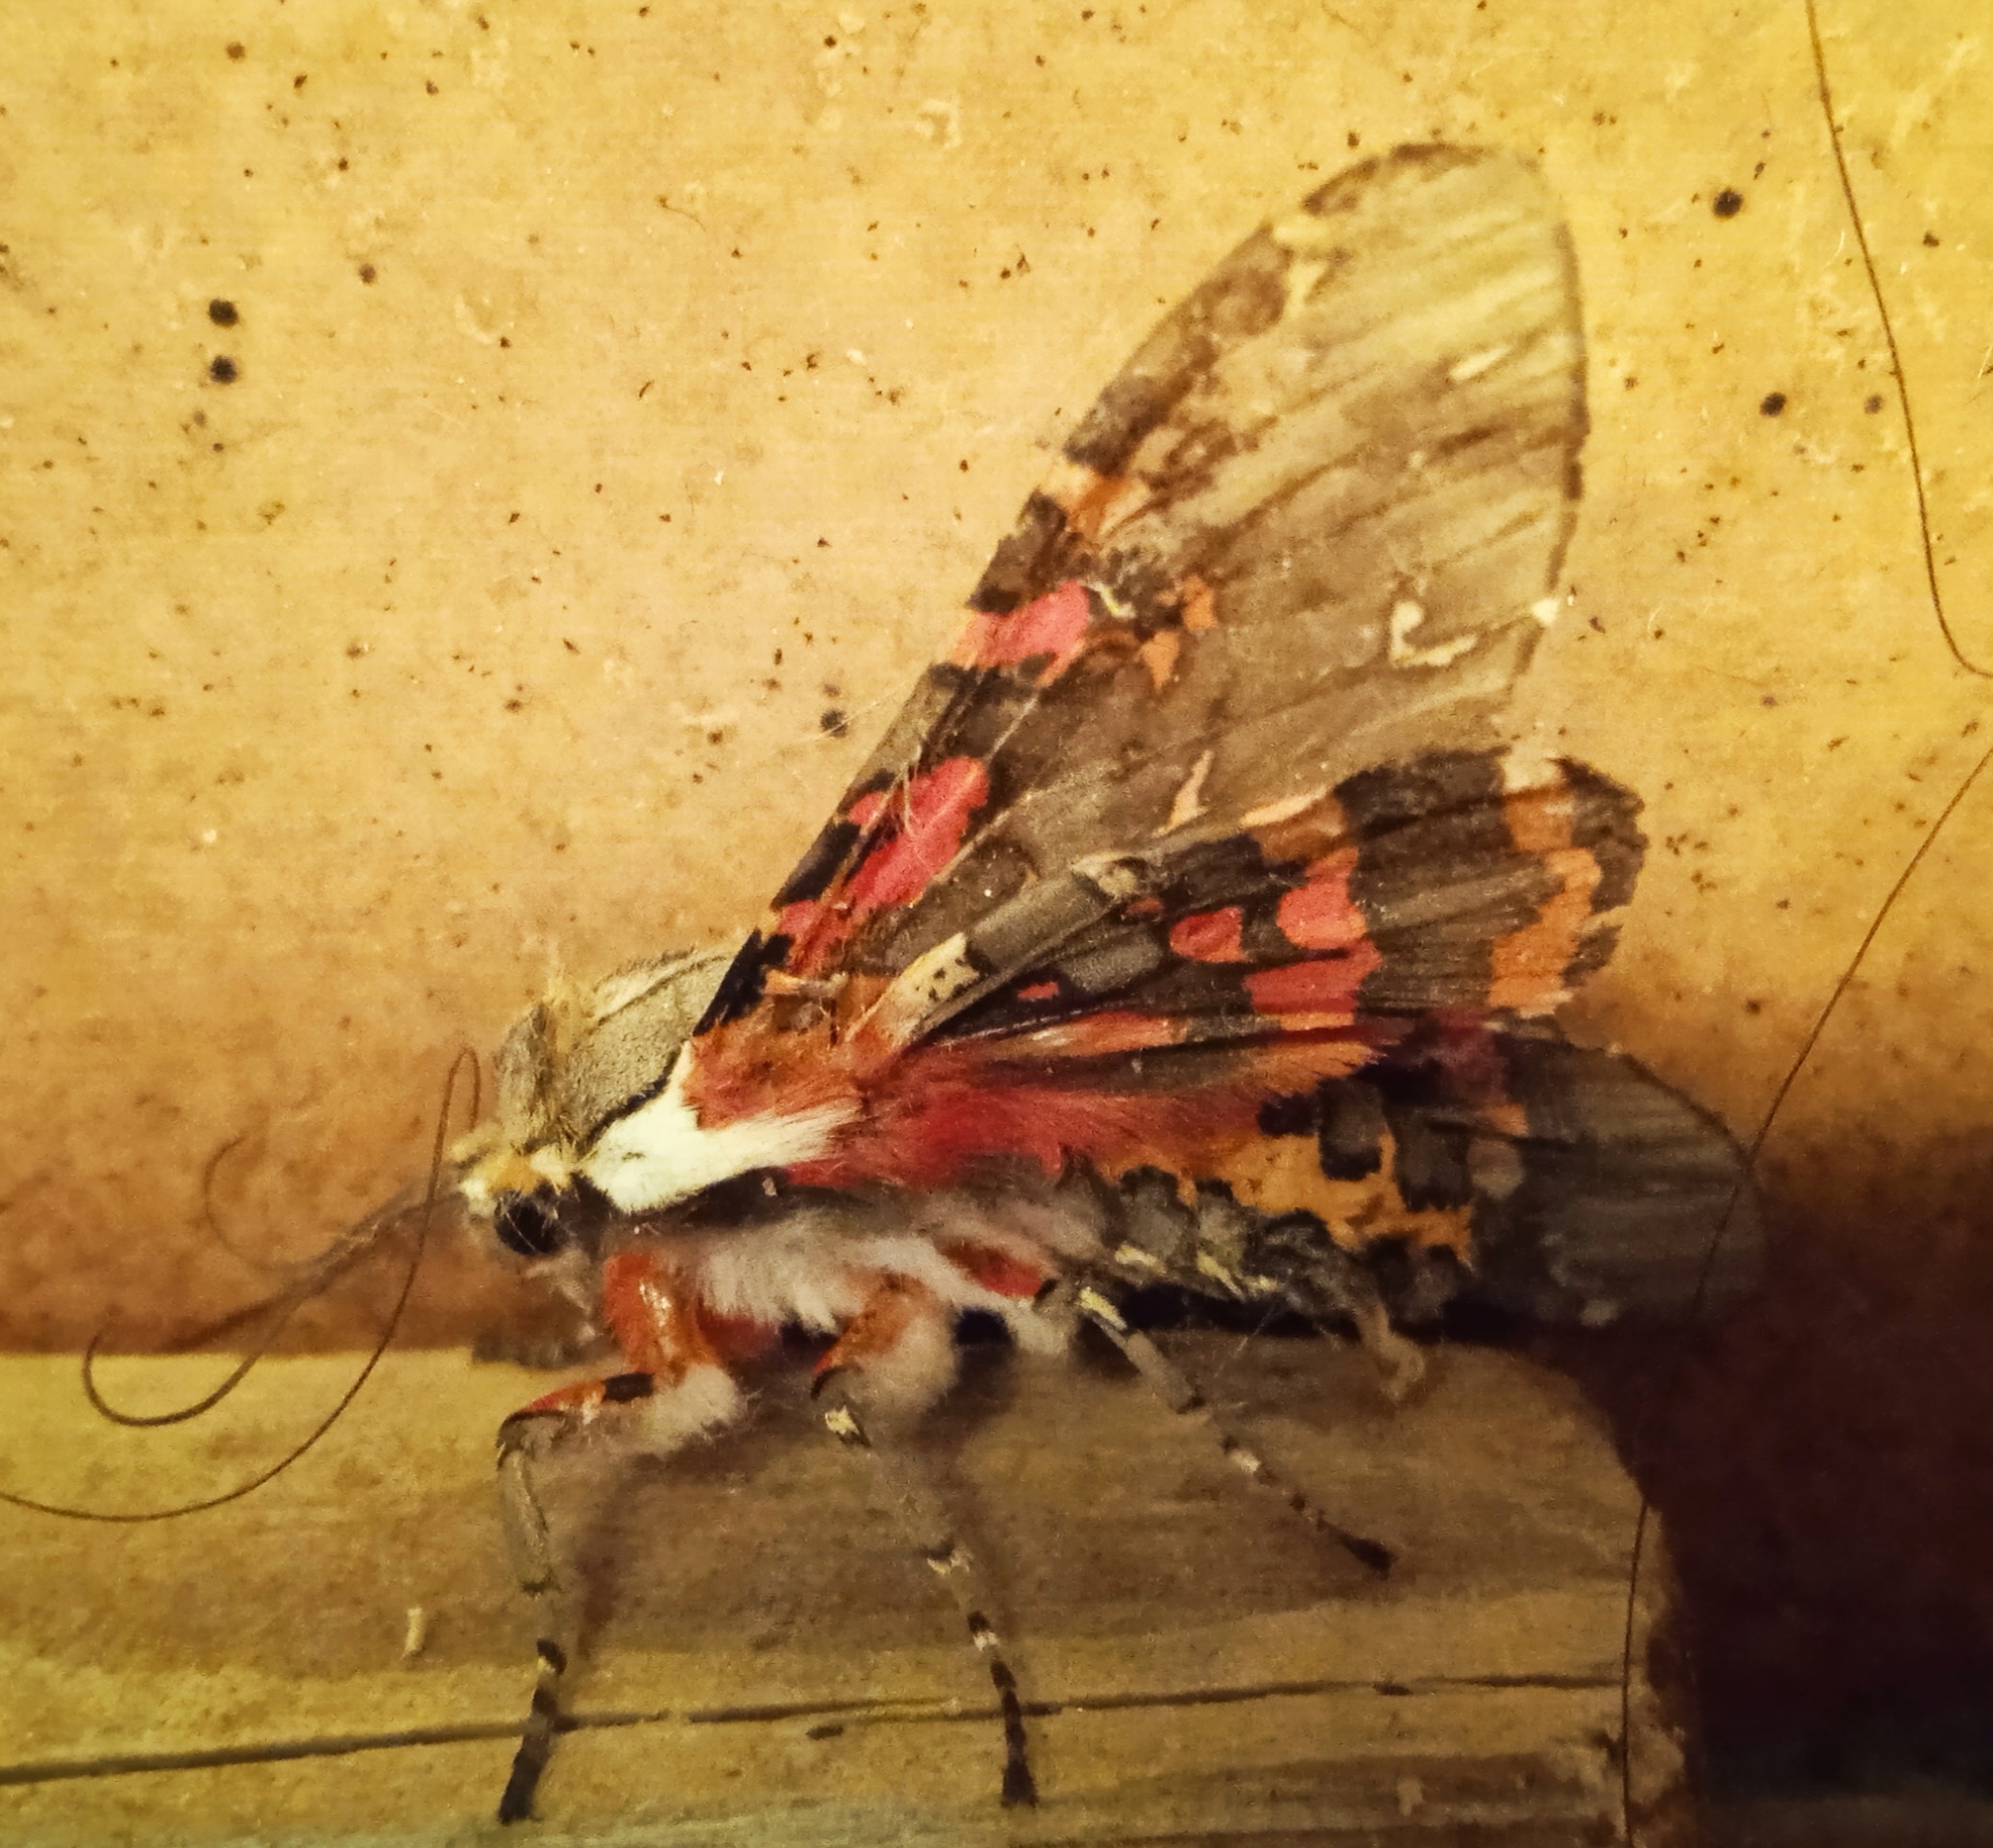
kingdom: Animalia
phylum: Arthropoda
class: Insecta
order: Lepidoptera
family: Erebidae
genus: Arachnis
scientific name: Arachnis picta
